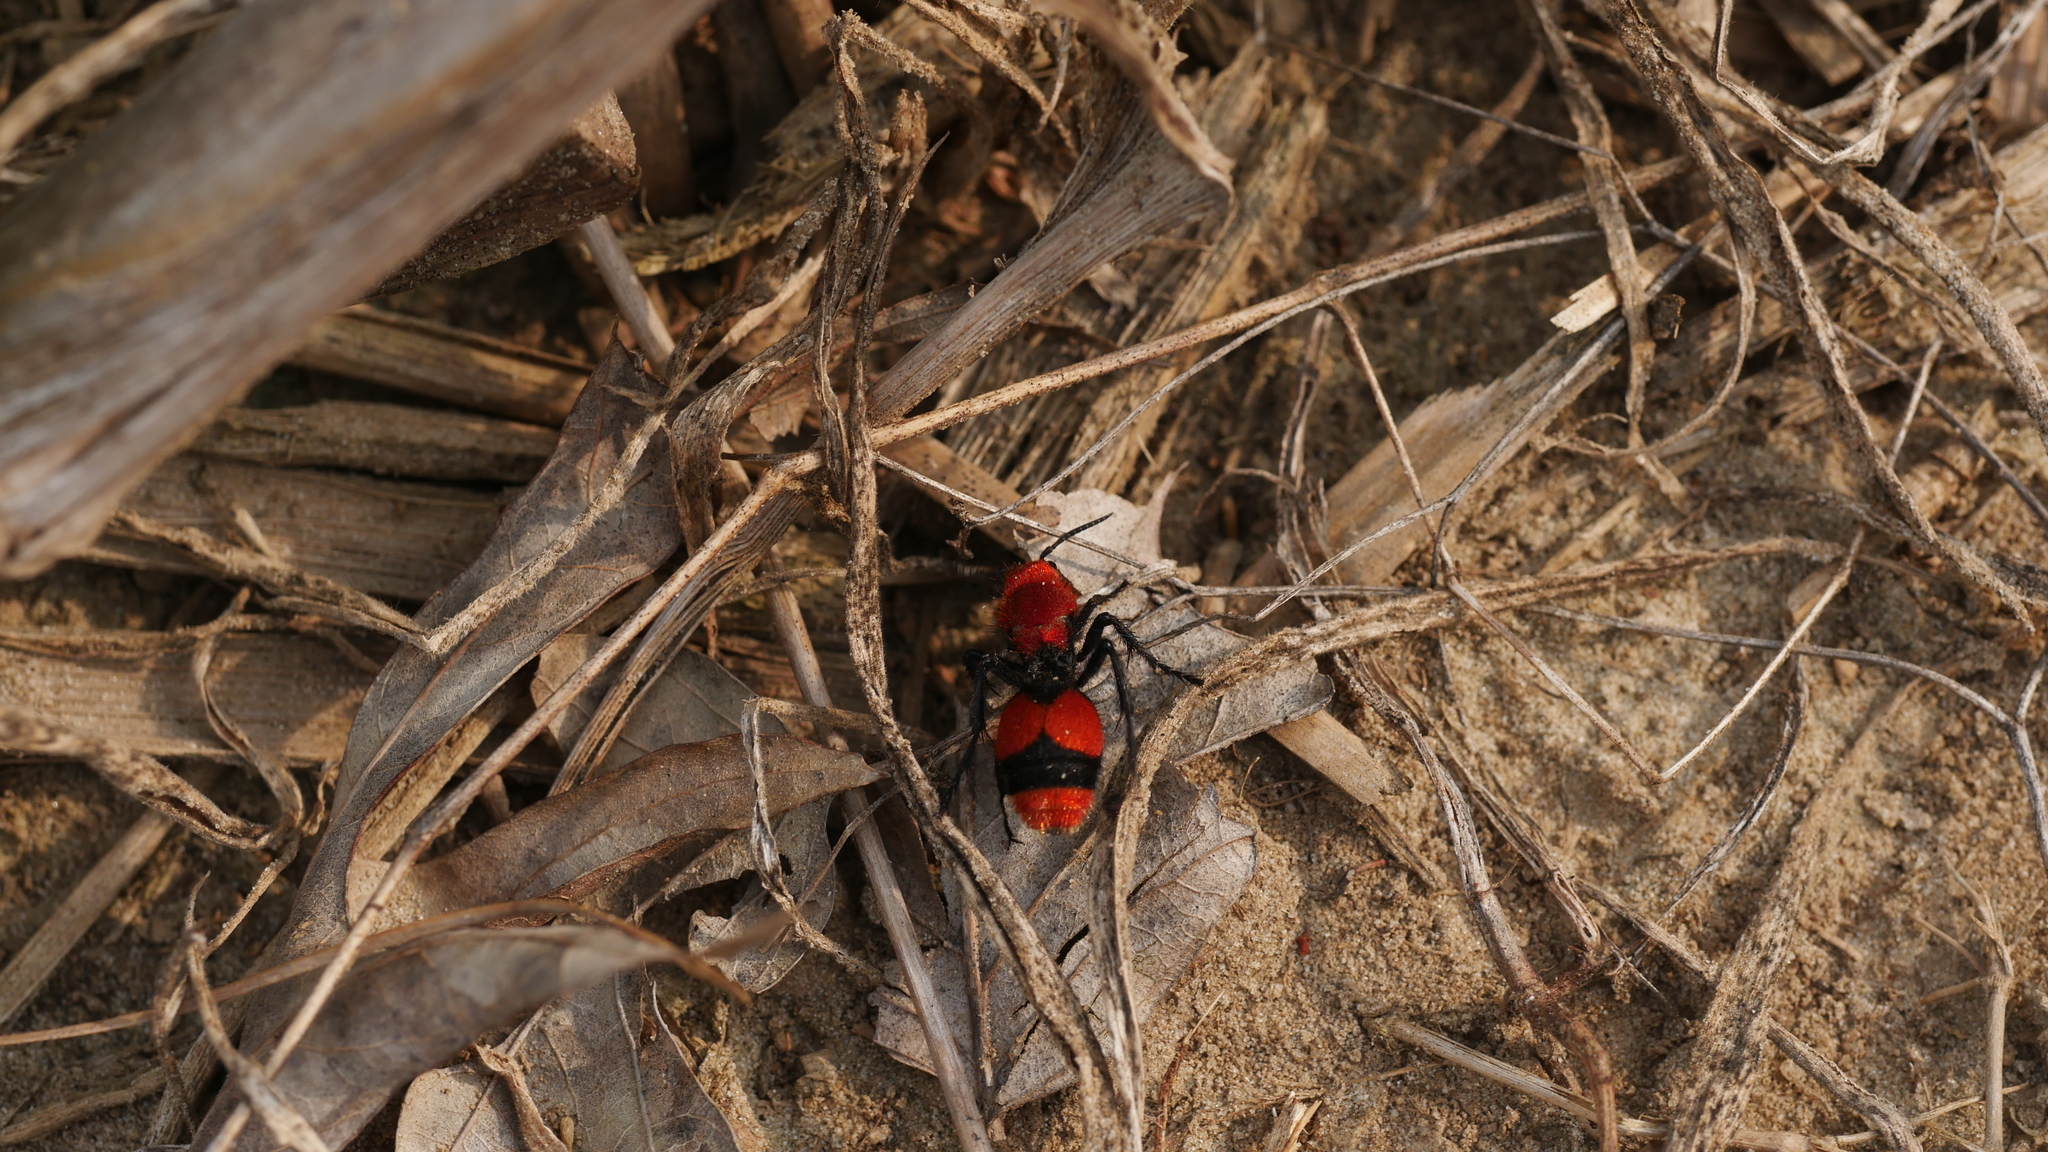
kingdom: Animalia
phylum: Arthropoda
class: Insecta
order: Hymenoptera
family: Mutillidae
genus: Dasymutilla
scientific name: Dasymutilla occidentalis
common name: Common eastern velvet ant
